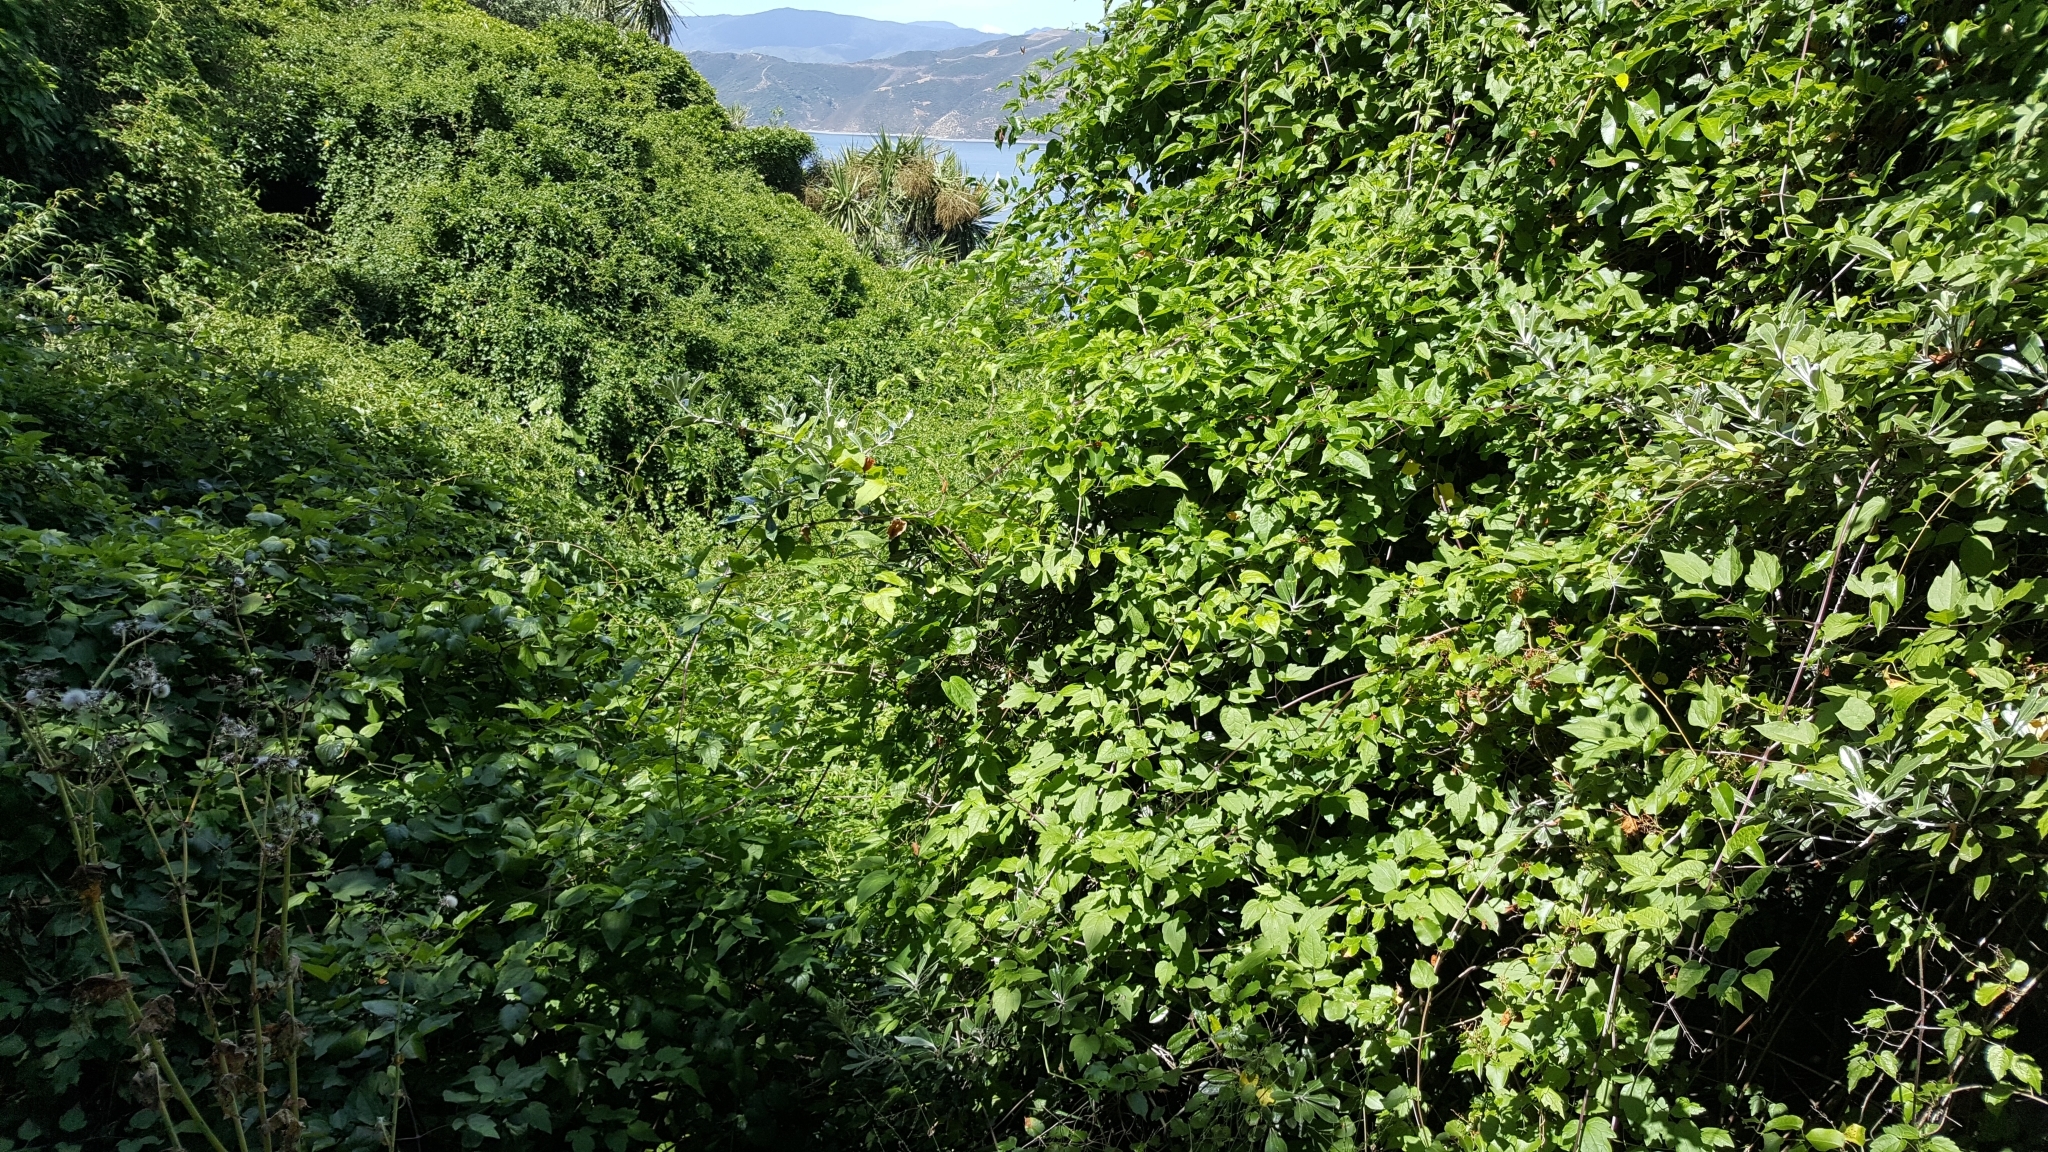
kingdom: Plantae
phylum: Tracheophyta
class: Magnoliopsida
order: Ranunculales
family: Ranunculaceae
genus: Clematis
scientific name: Clematis vitalba
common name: Evergreen clematis
